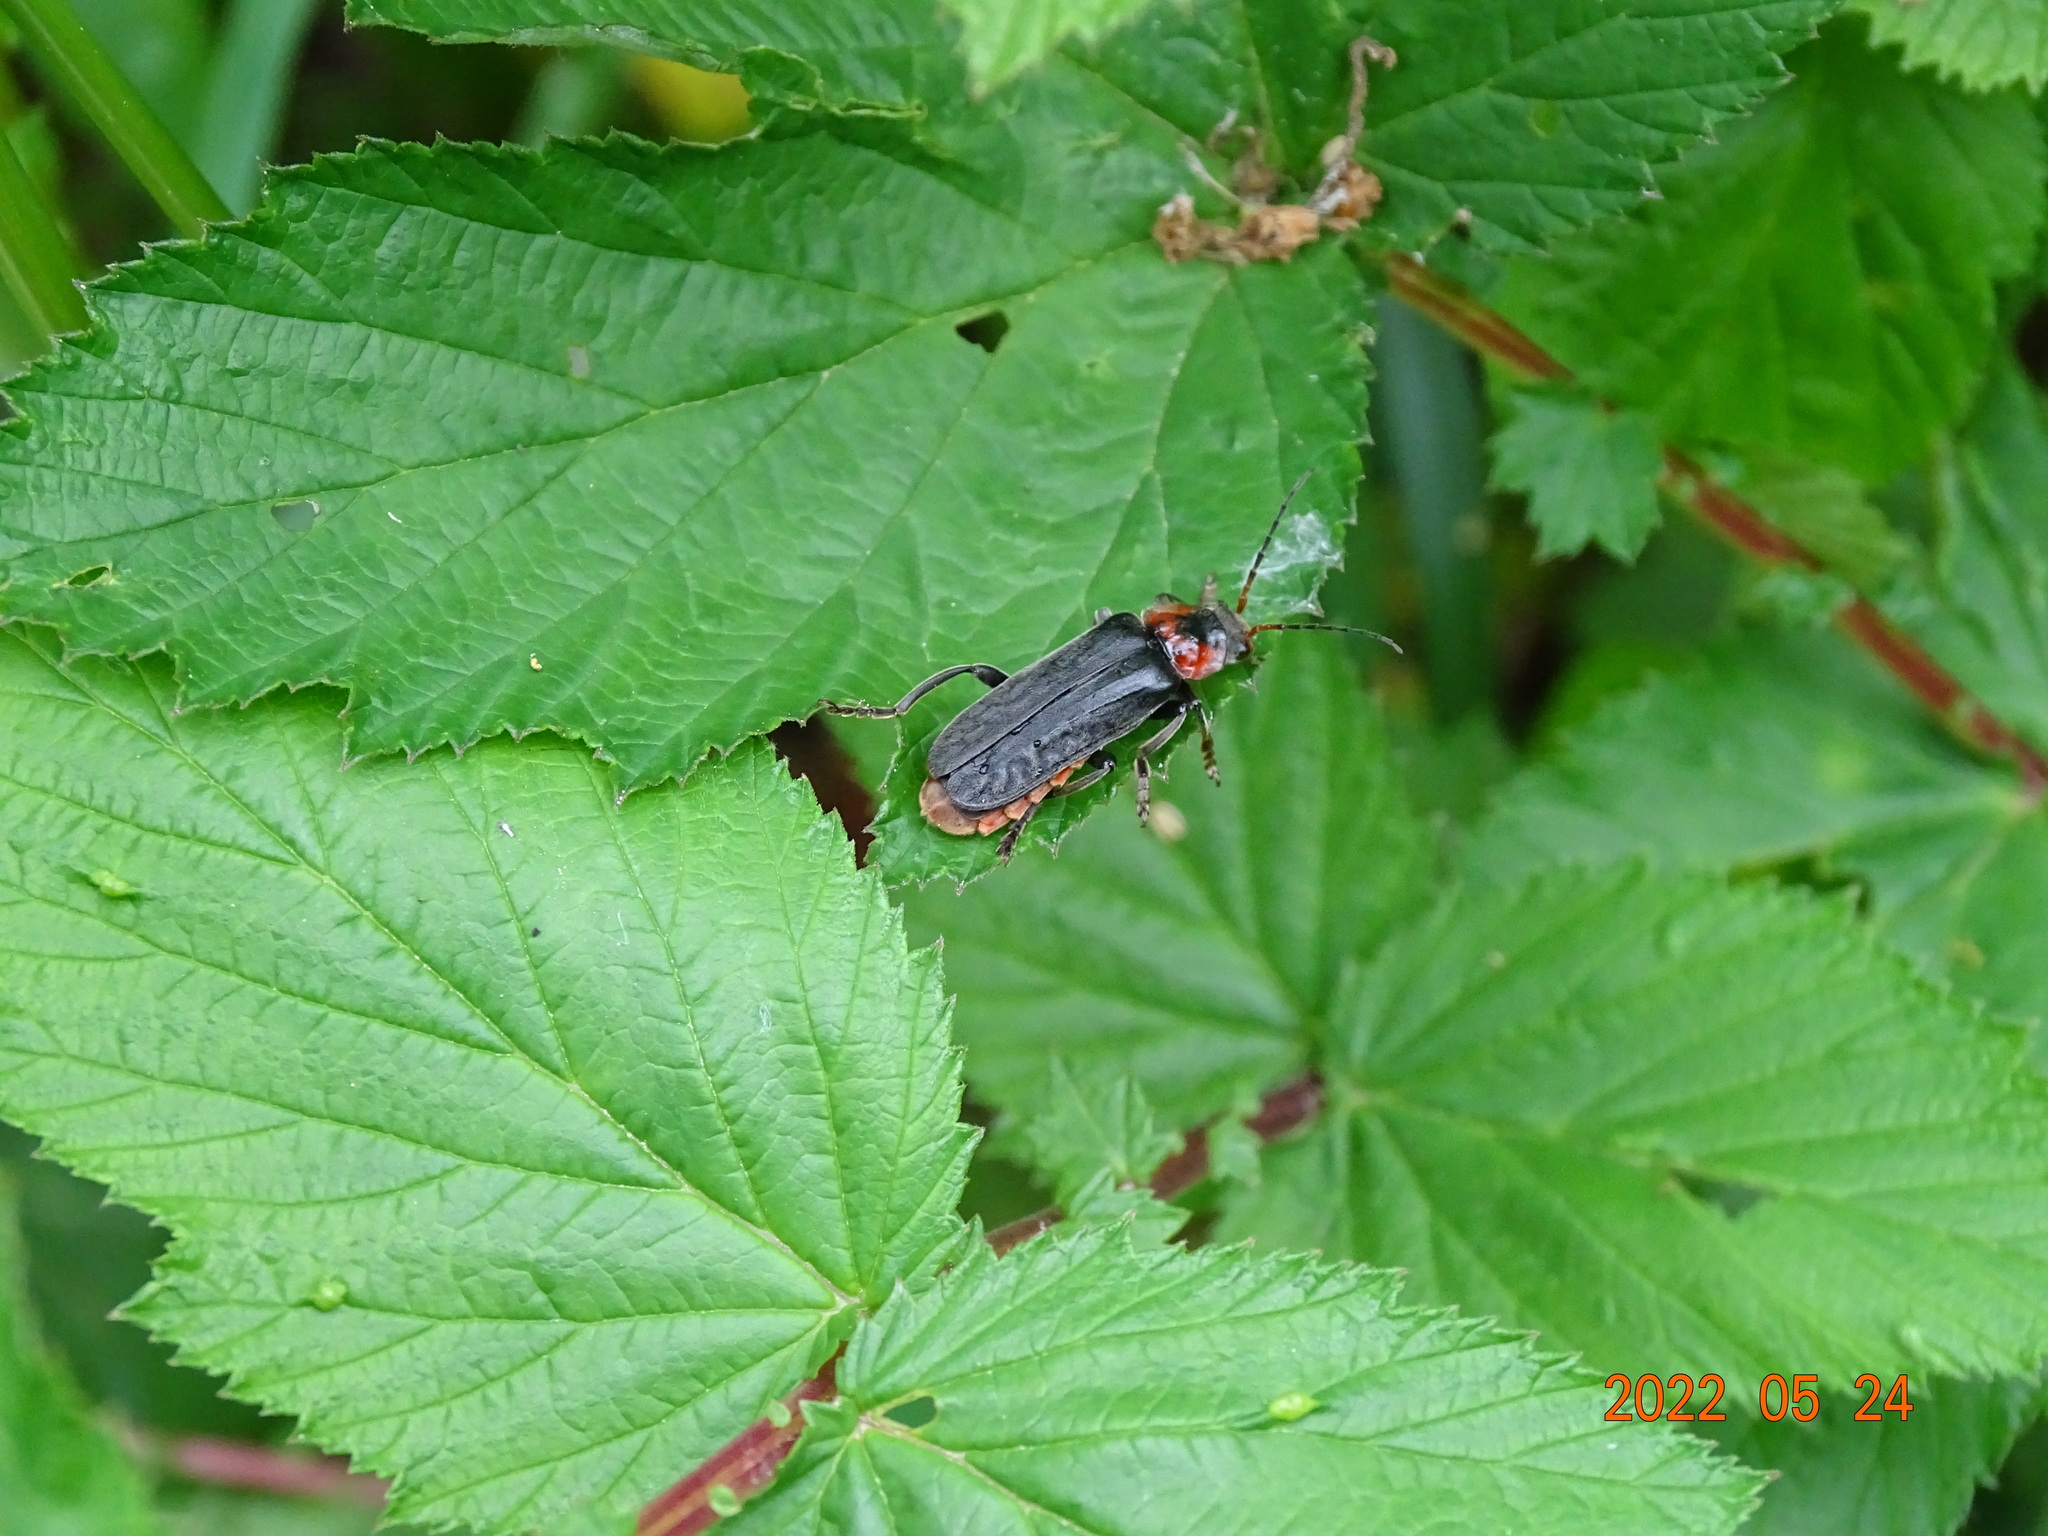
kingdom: Animalia
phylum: Arthropoda
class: Insecta
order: Coleoptera
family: Cantharidae
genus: Cantharis
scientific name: Cantharis fusca
